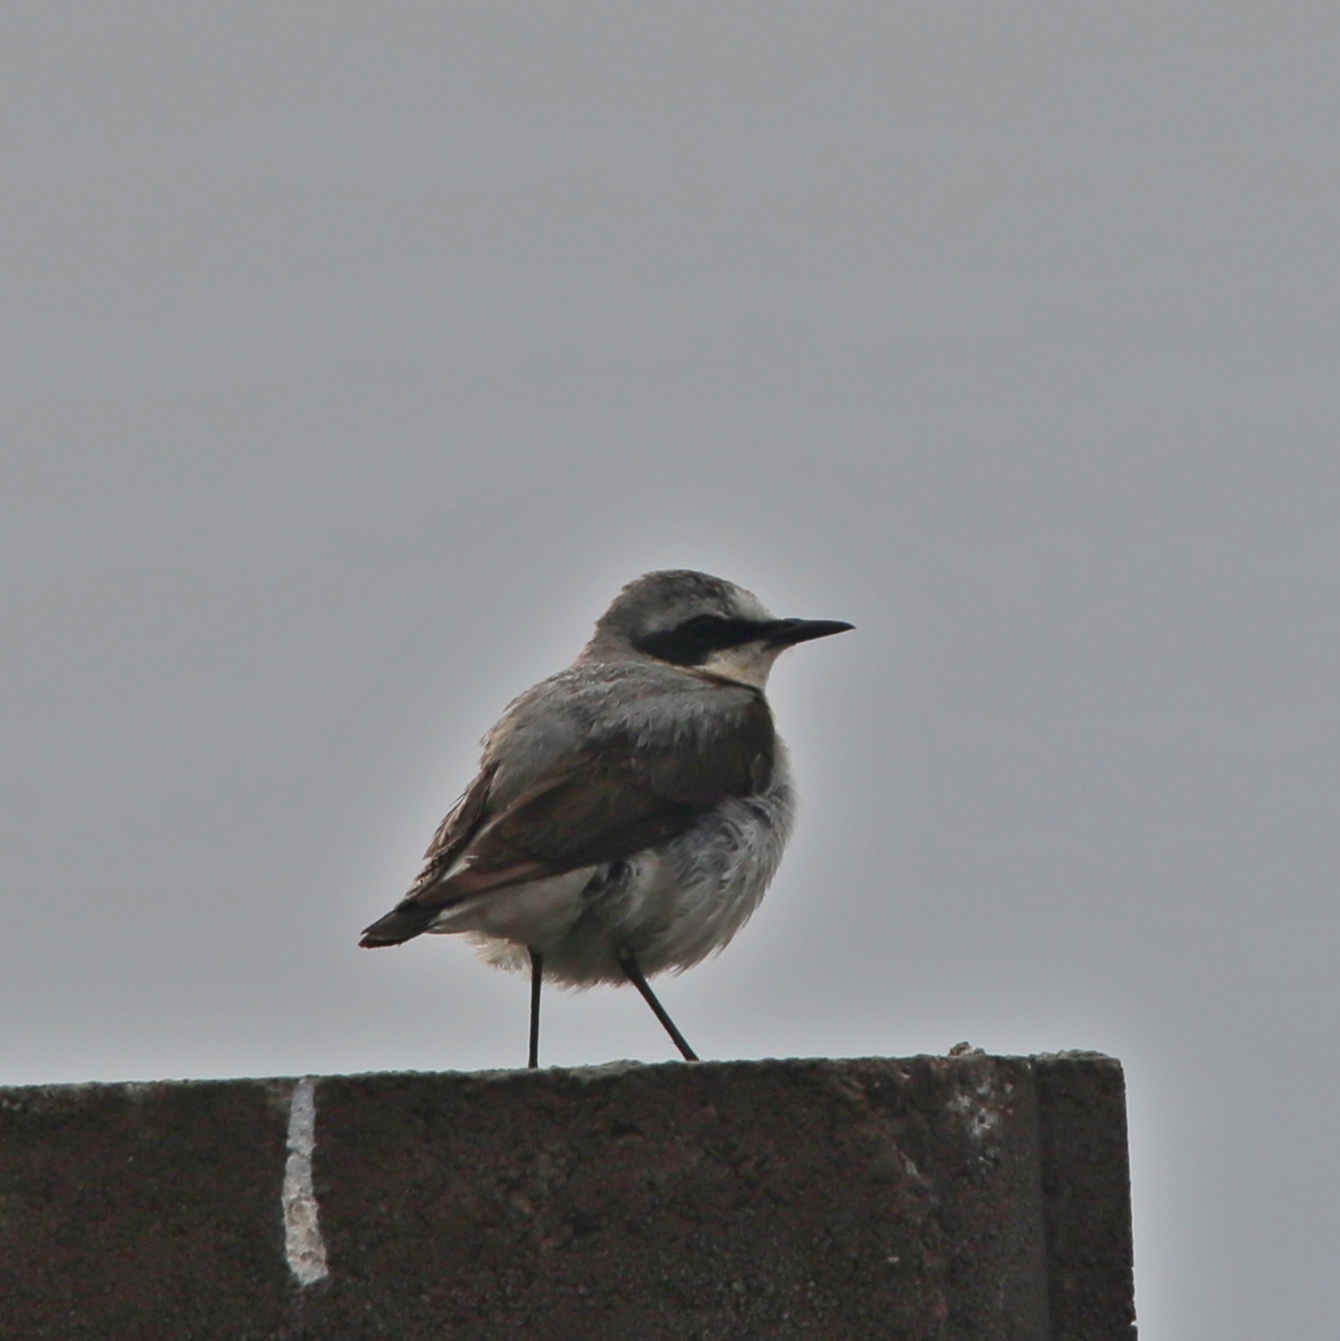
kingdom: Animalia
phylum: Chordata
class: Aves
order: Passeriformes
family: Muscicapidae
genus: Oenanthe
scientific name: Oenanthe oenanthe
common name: Northern wheatear
